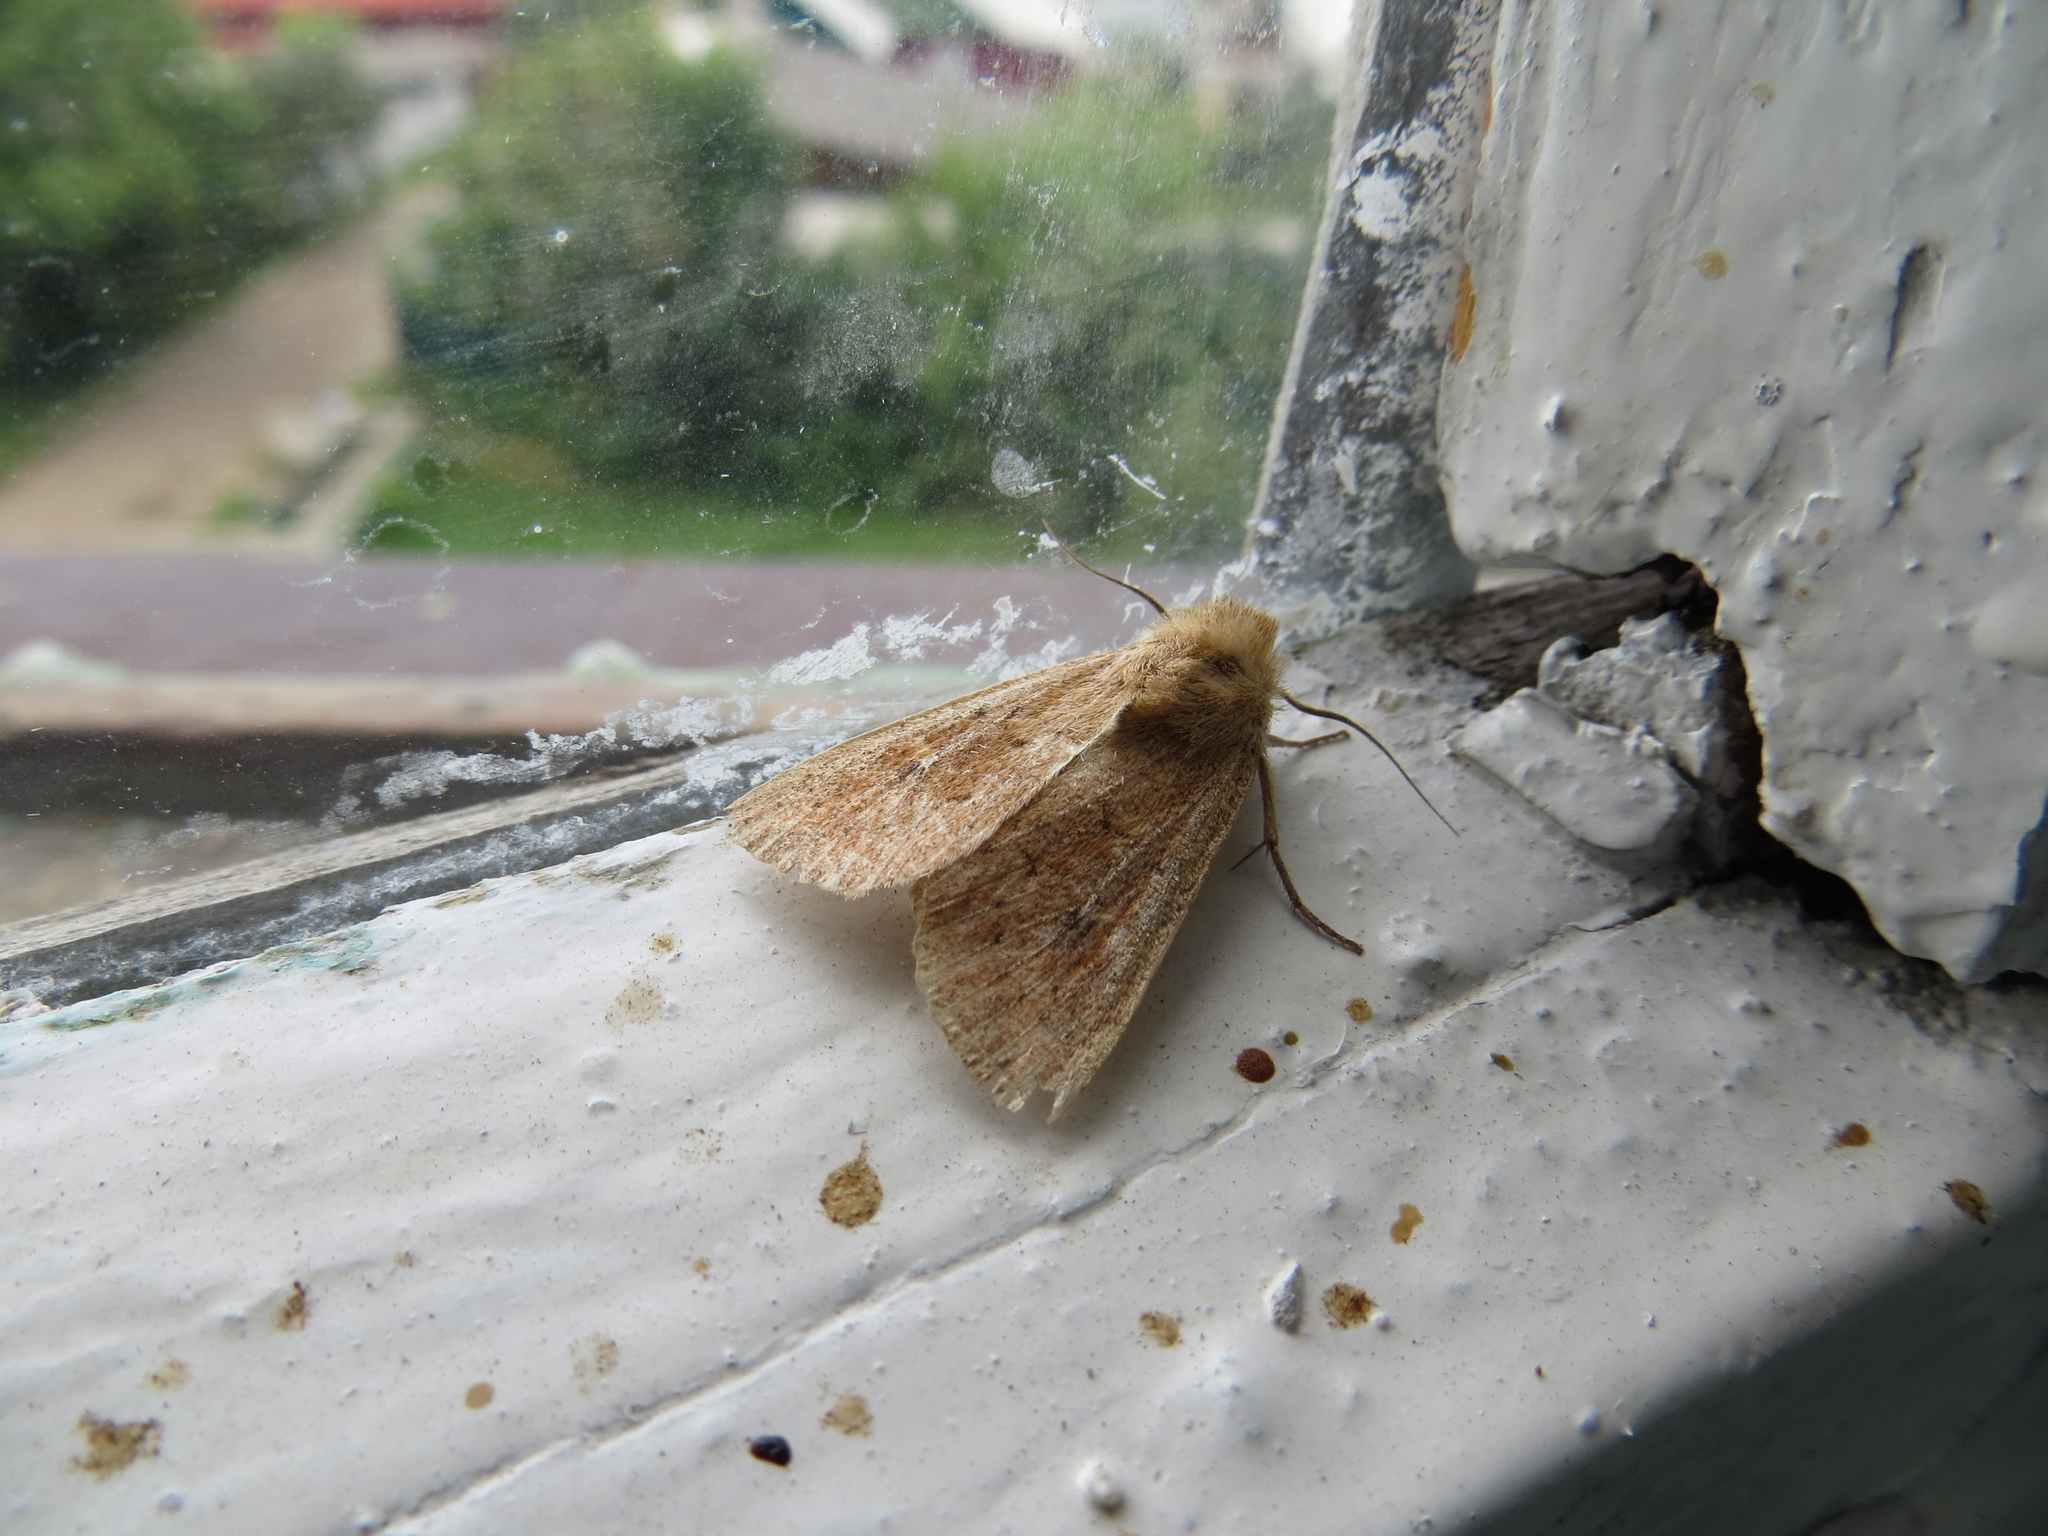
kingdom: Animalia
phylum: Arthropoda
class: Insecta
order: Lepidoptera
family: Noctuidae
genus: Mythimna
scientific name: Mythimna ferrago
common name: Clay
